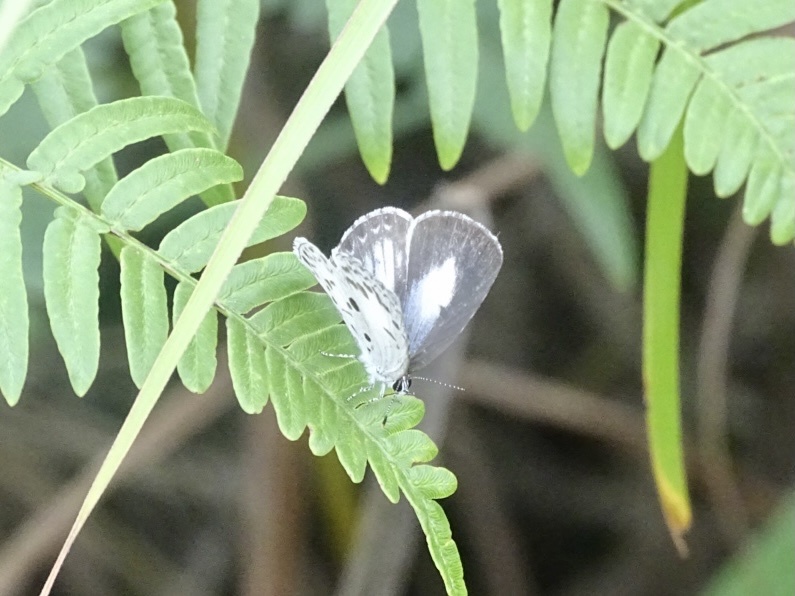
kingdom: Animalia
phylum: Arthropoda
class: Insecta
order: Lepidoptera
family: Lycaenidae
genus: Acytolepis
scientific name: Acytolepis puspa
